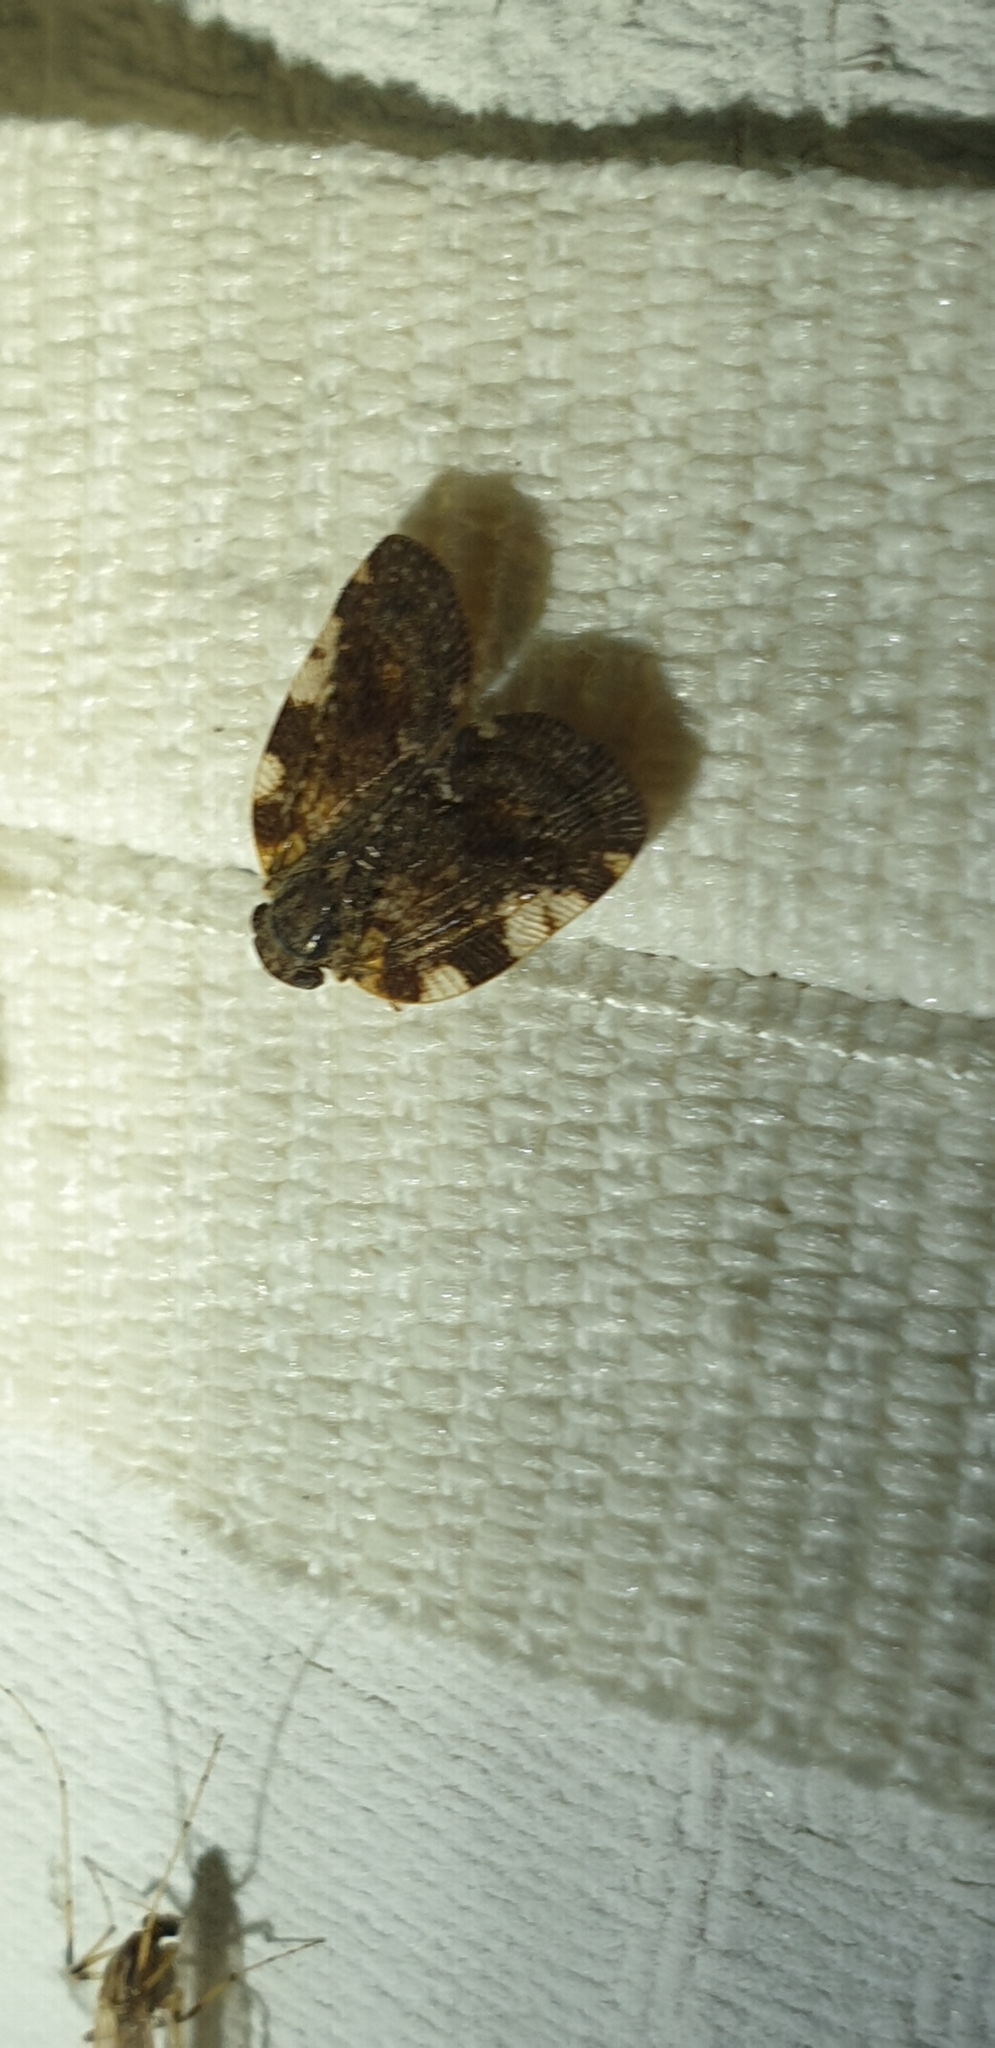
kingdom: Animalia
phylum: Arthropoda
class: Insecta
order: Hemiptera
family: Ricaniidae
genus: Aprivesa
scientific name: Aprivesa exuta
